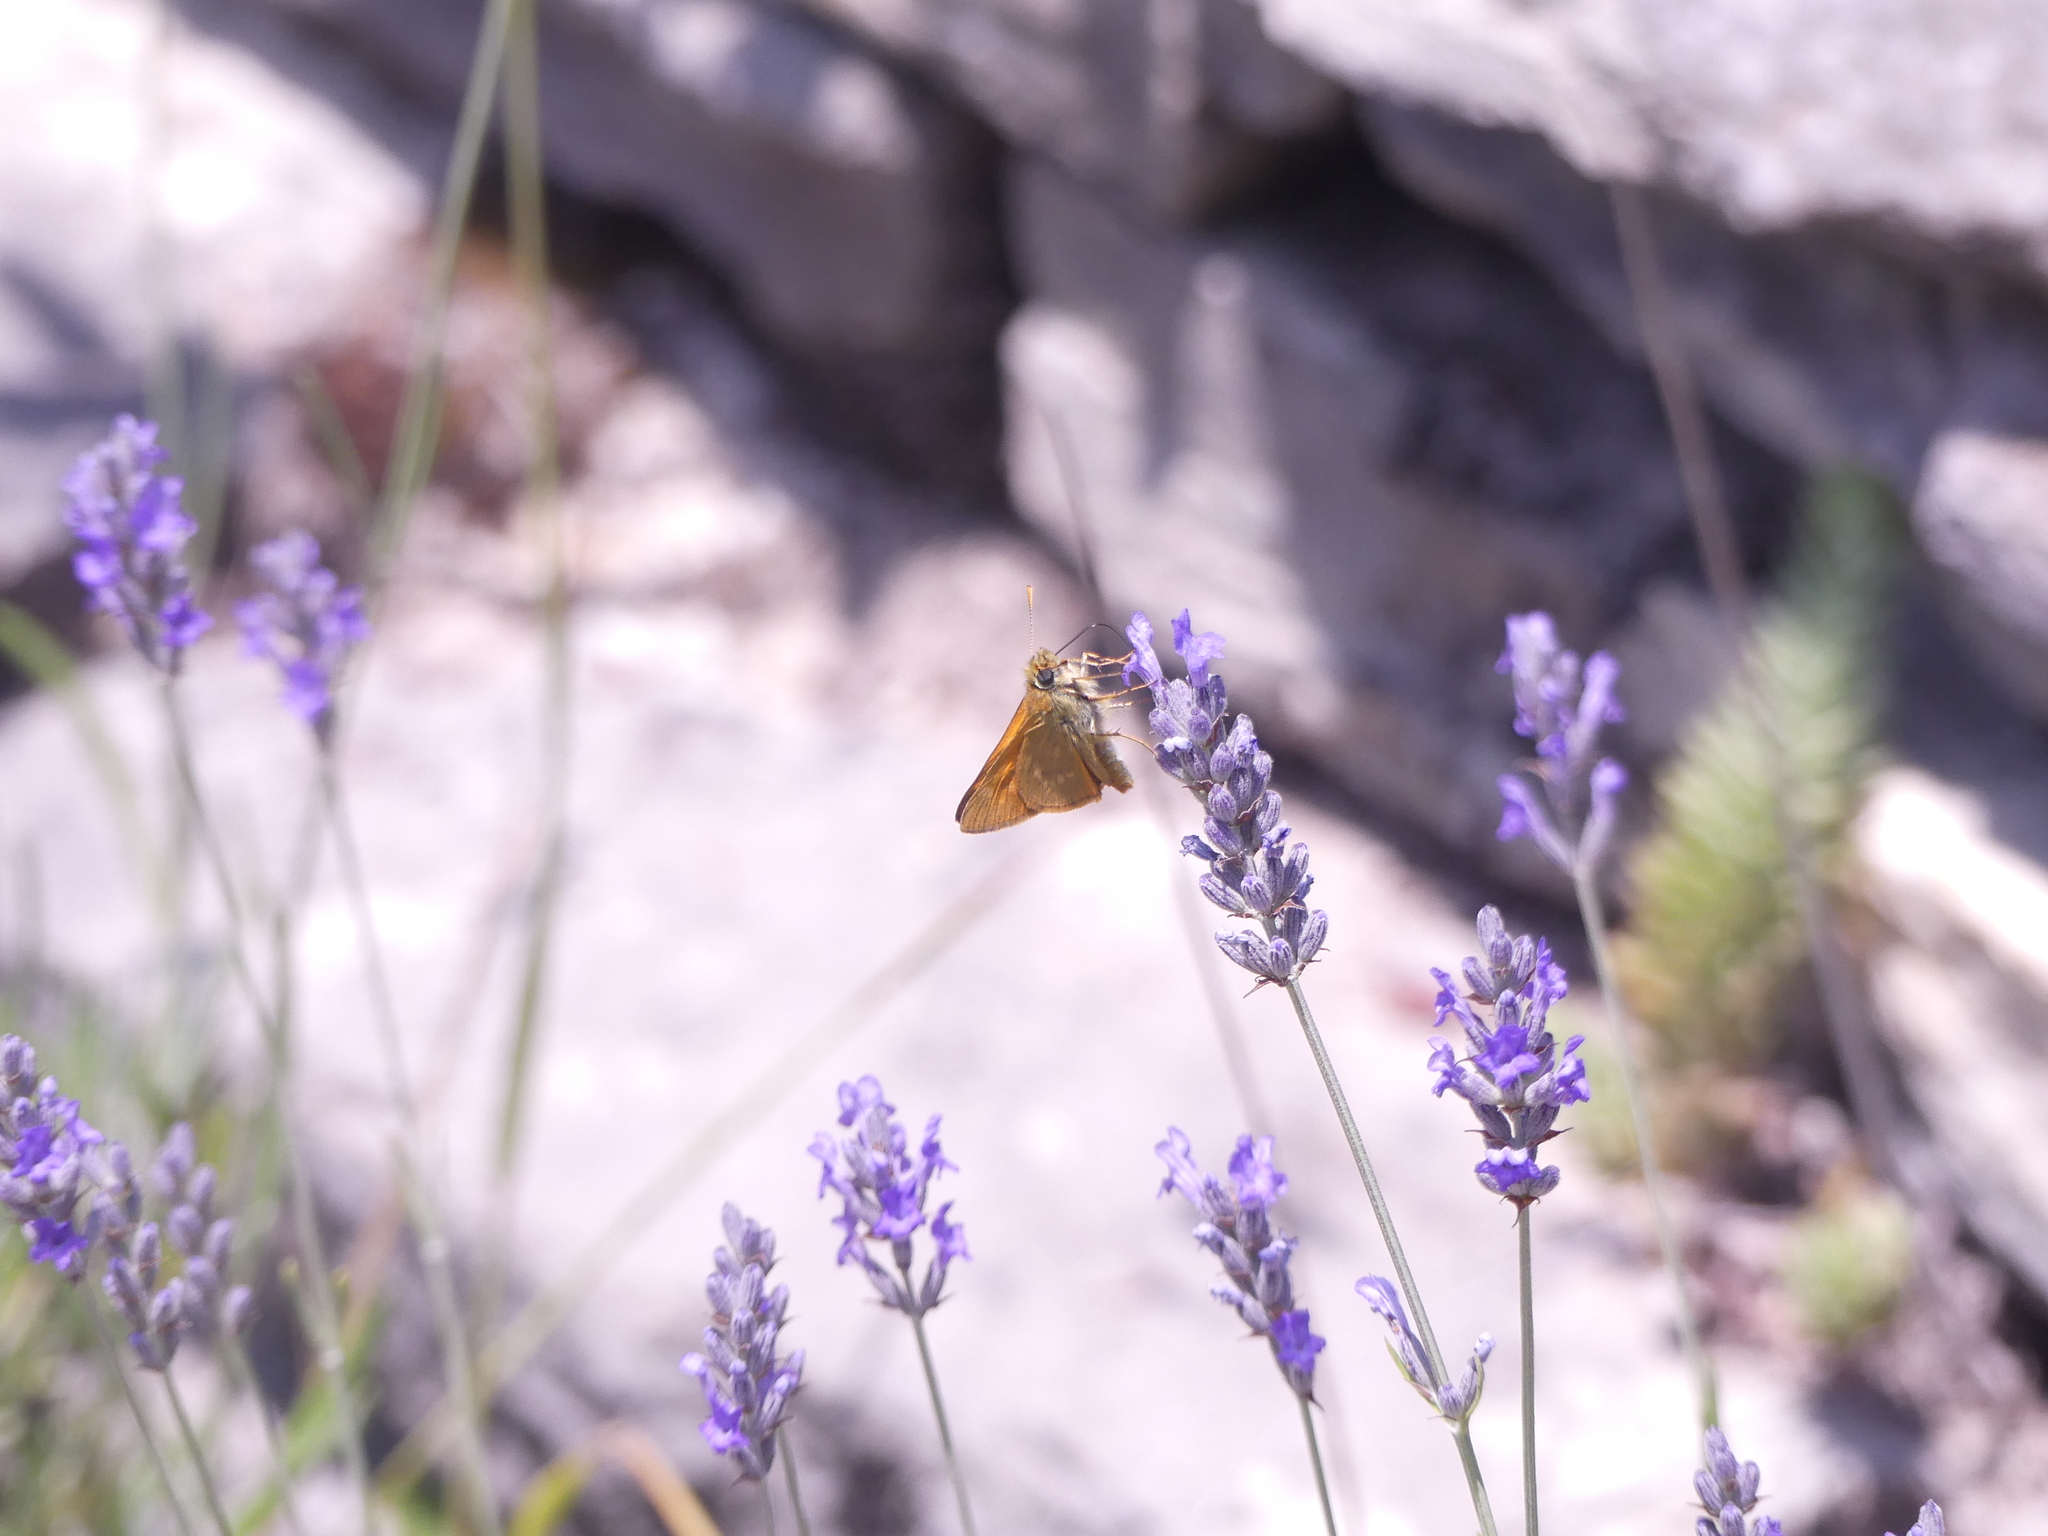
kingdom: Animalia
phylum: Arthropoda
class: Insecta
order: Lepidoptera
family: Hesperiidae
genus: Ochlodes
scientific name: Ochlodes venata
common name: Large skipper
